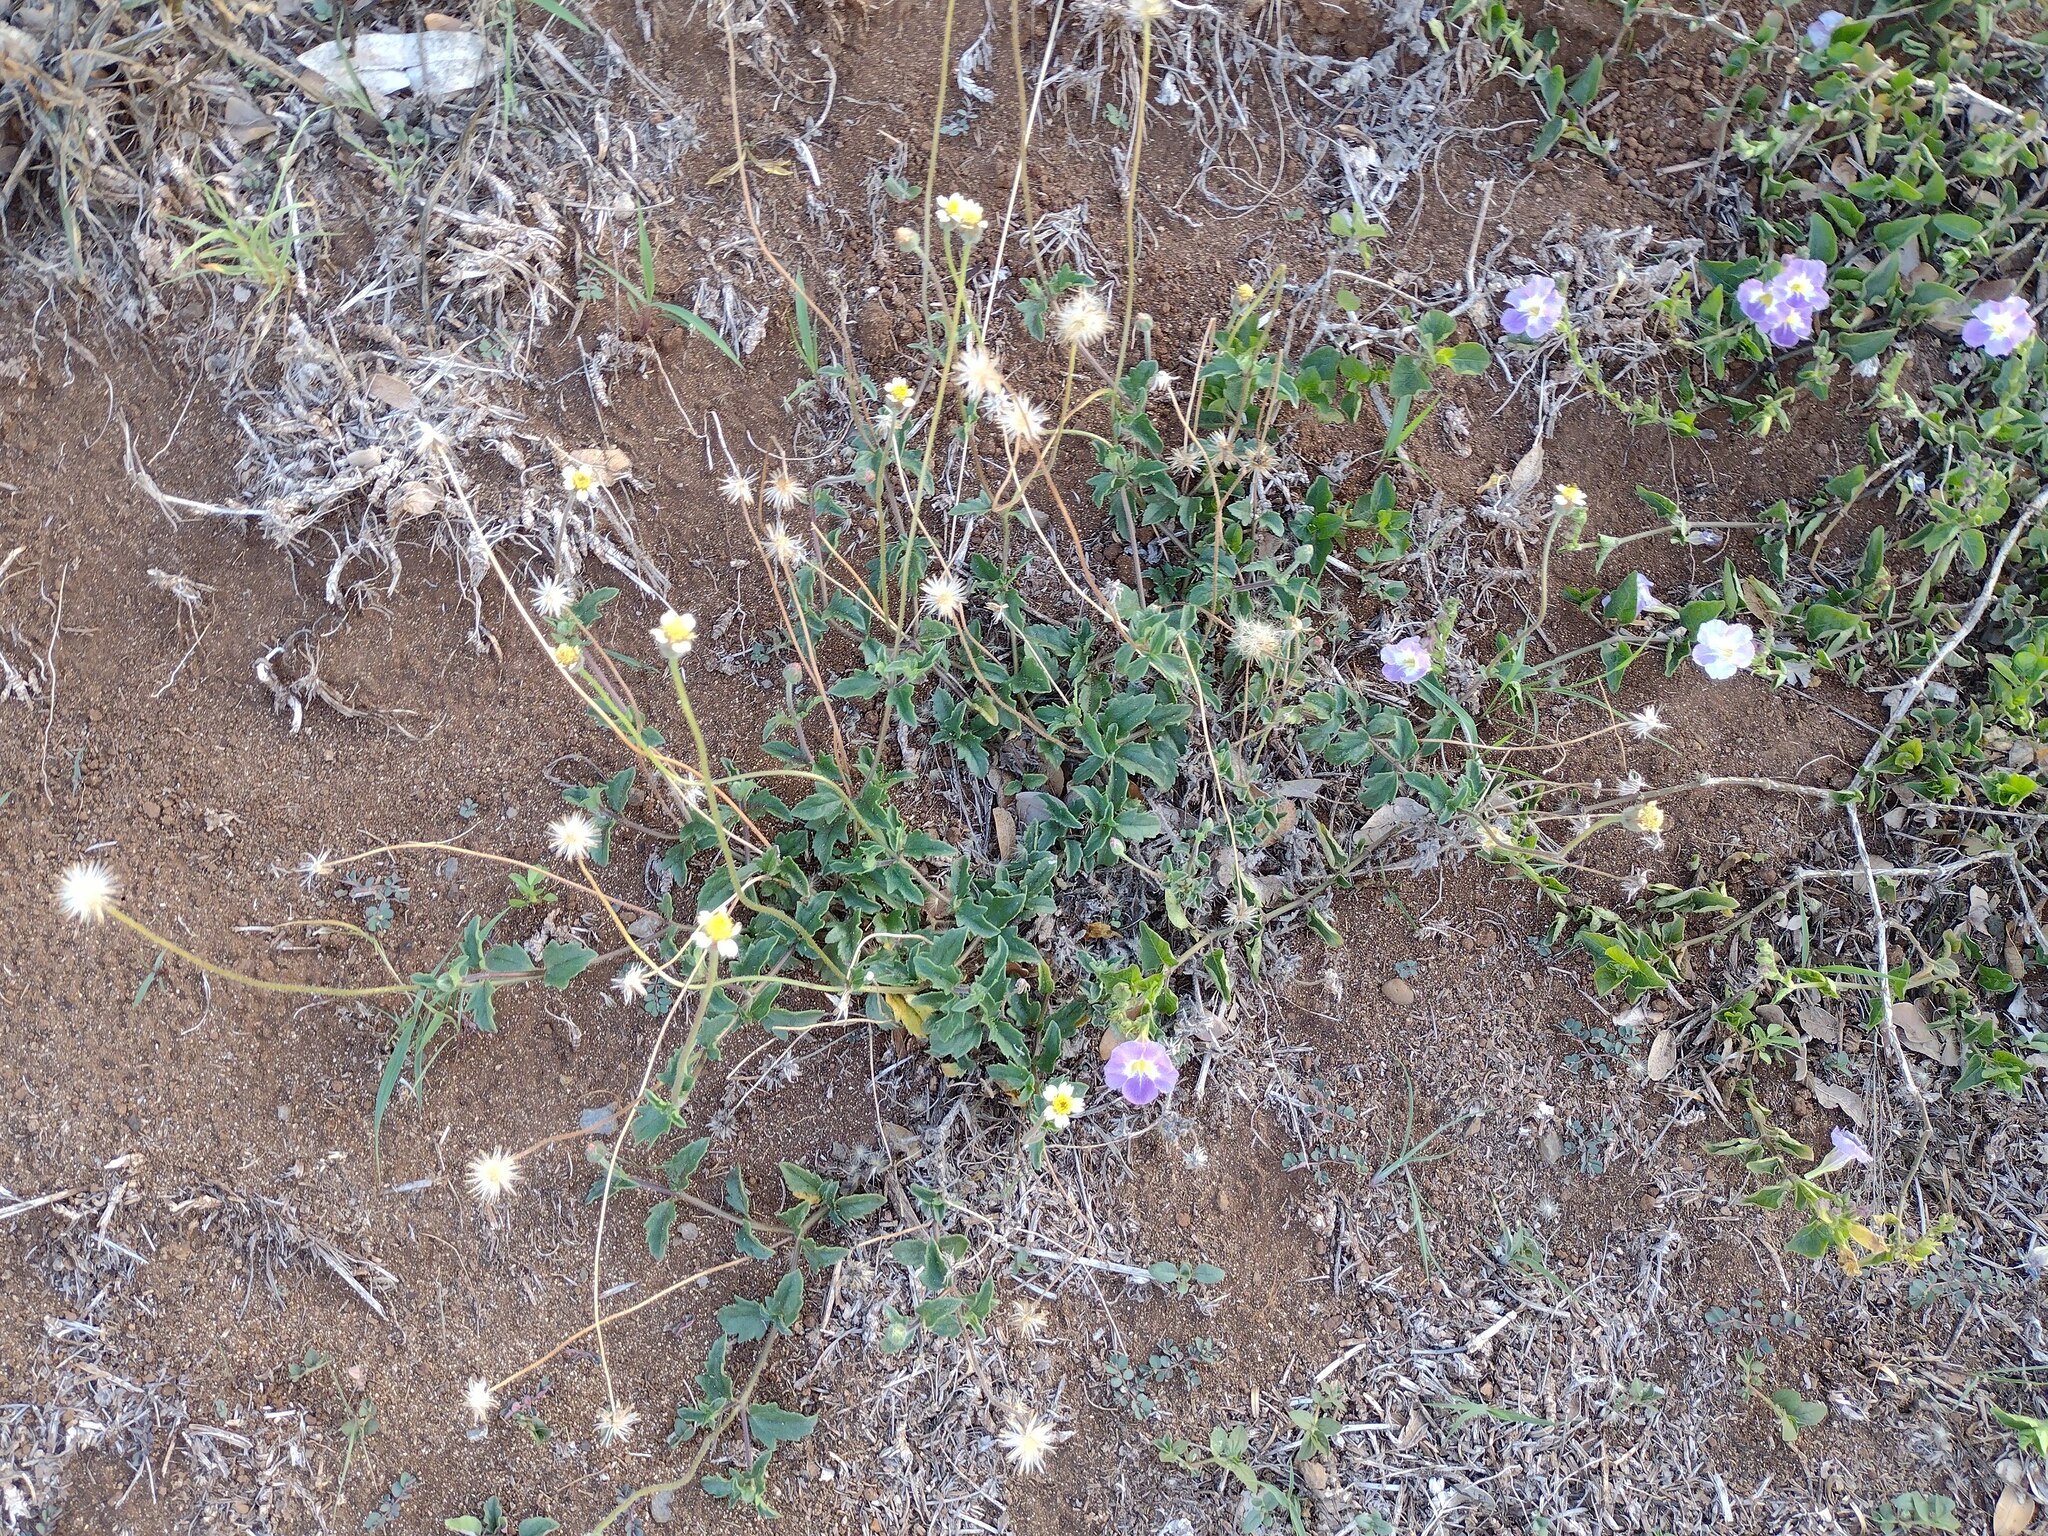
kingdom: Plantae
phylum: Tracheophyta
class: Magnoliopsida
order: Asterales
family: Asteraceae
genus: Tridax
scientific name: Tridax procumbens
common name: Coatbuttons
